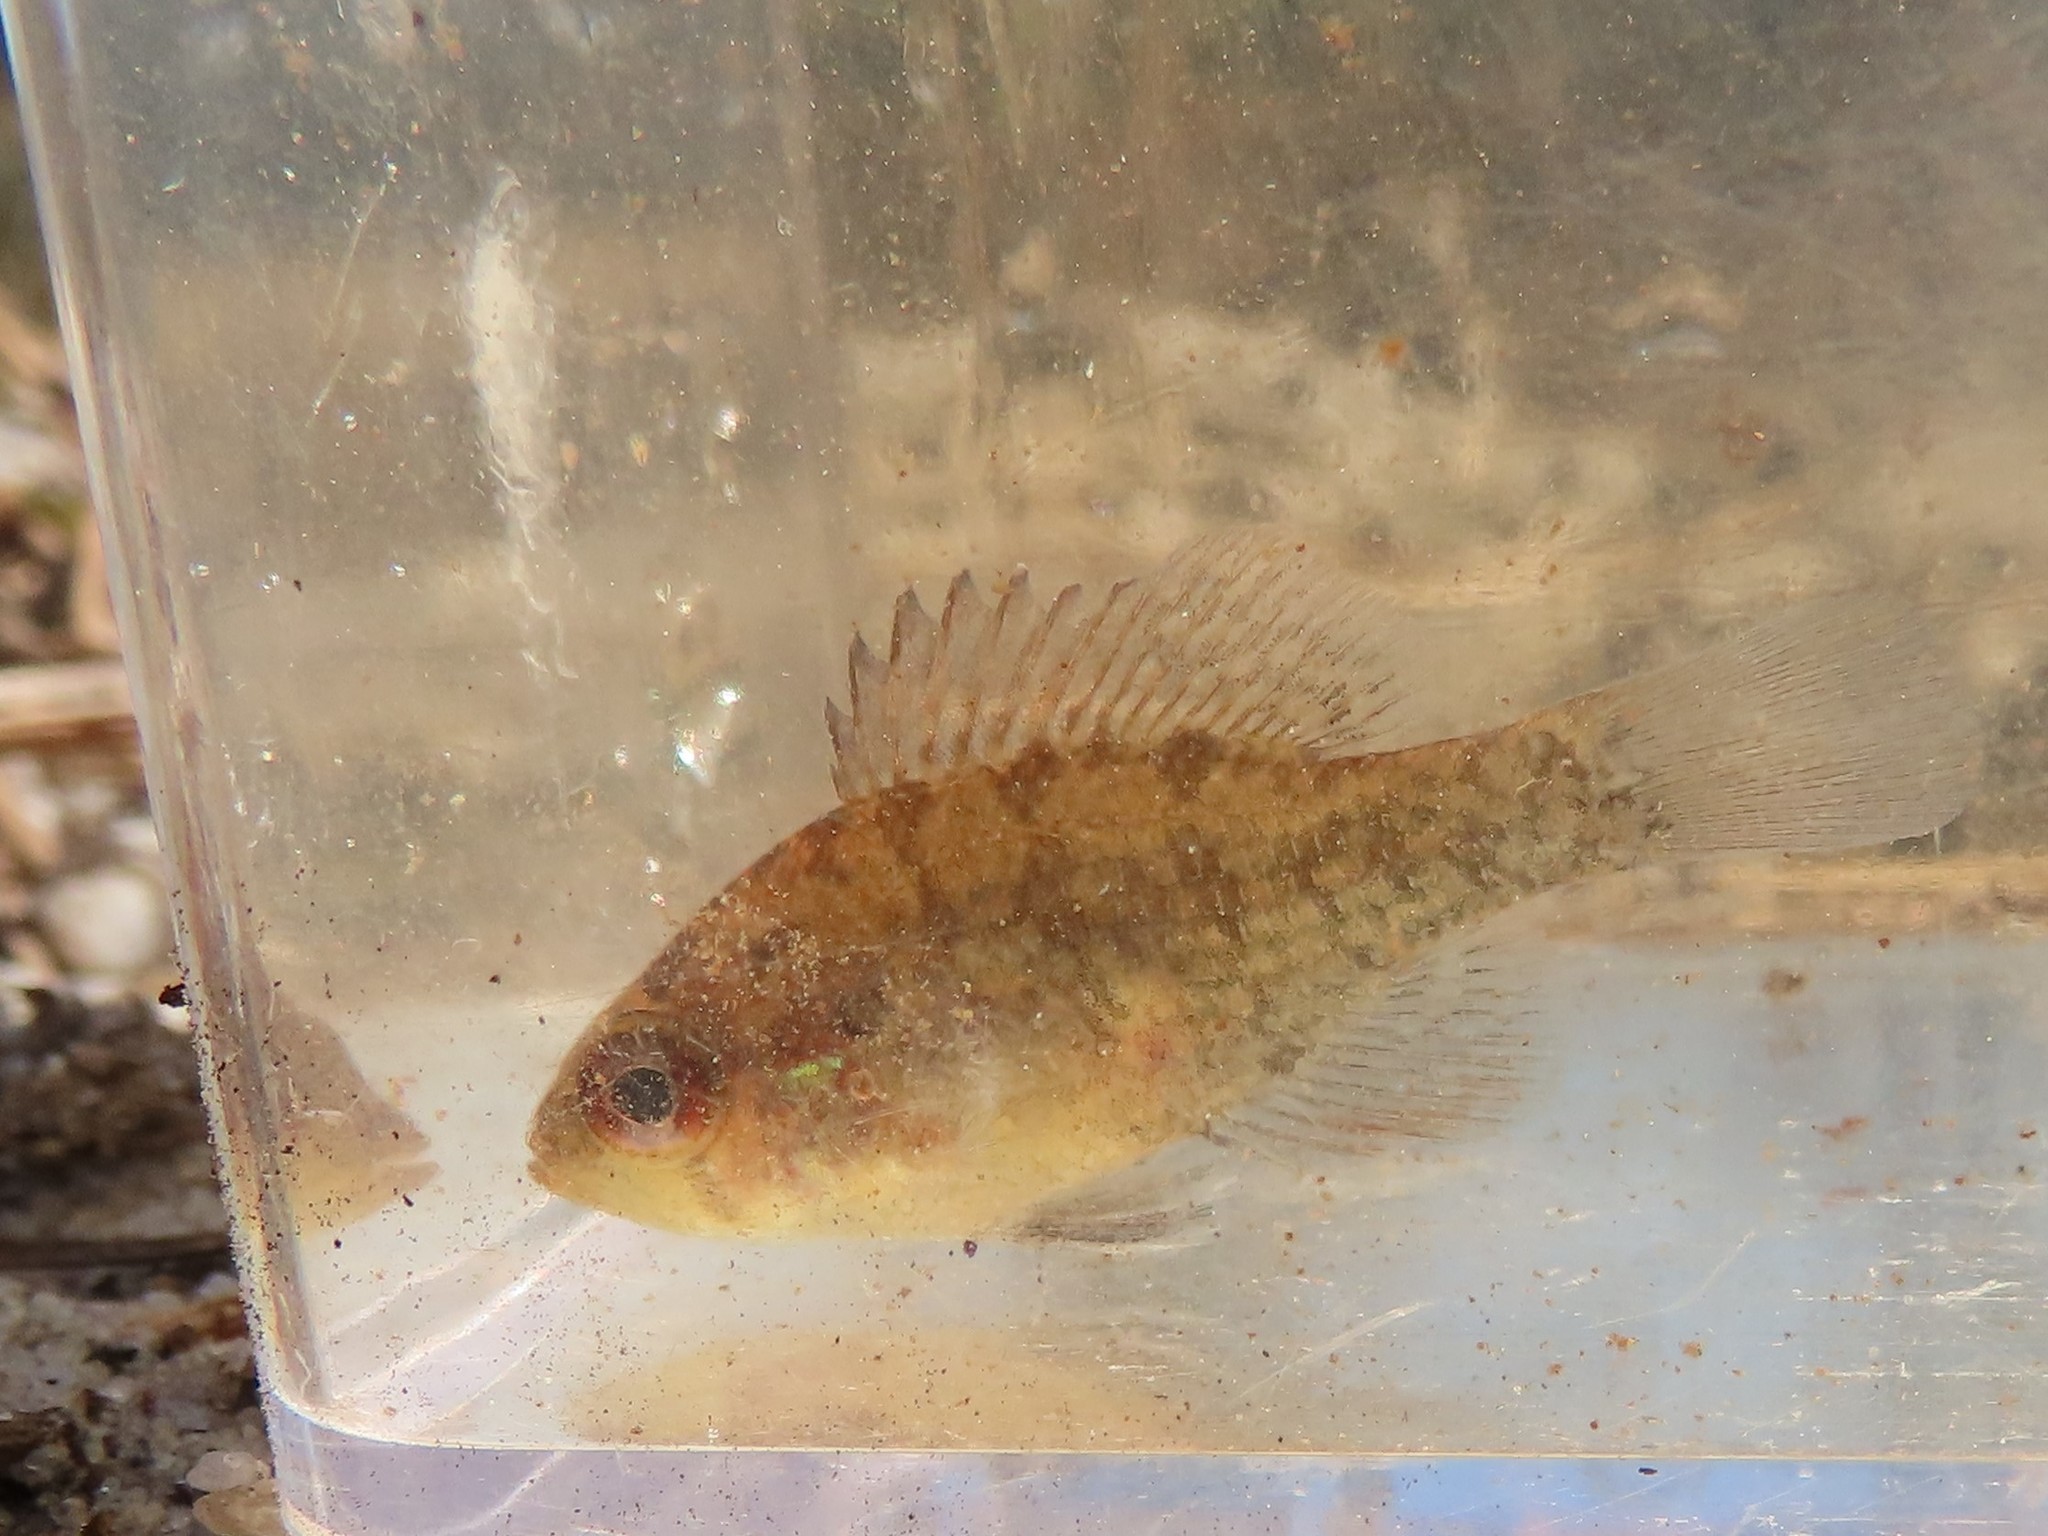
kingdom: Animalia
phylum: Chordata
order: Perciformes
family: Centrarchidae
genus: Enneacanthus
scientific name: Enneacanthus obesus
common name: Banded sunfish
